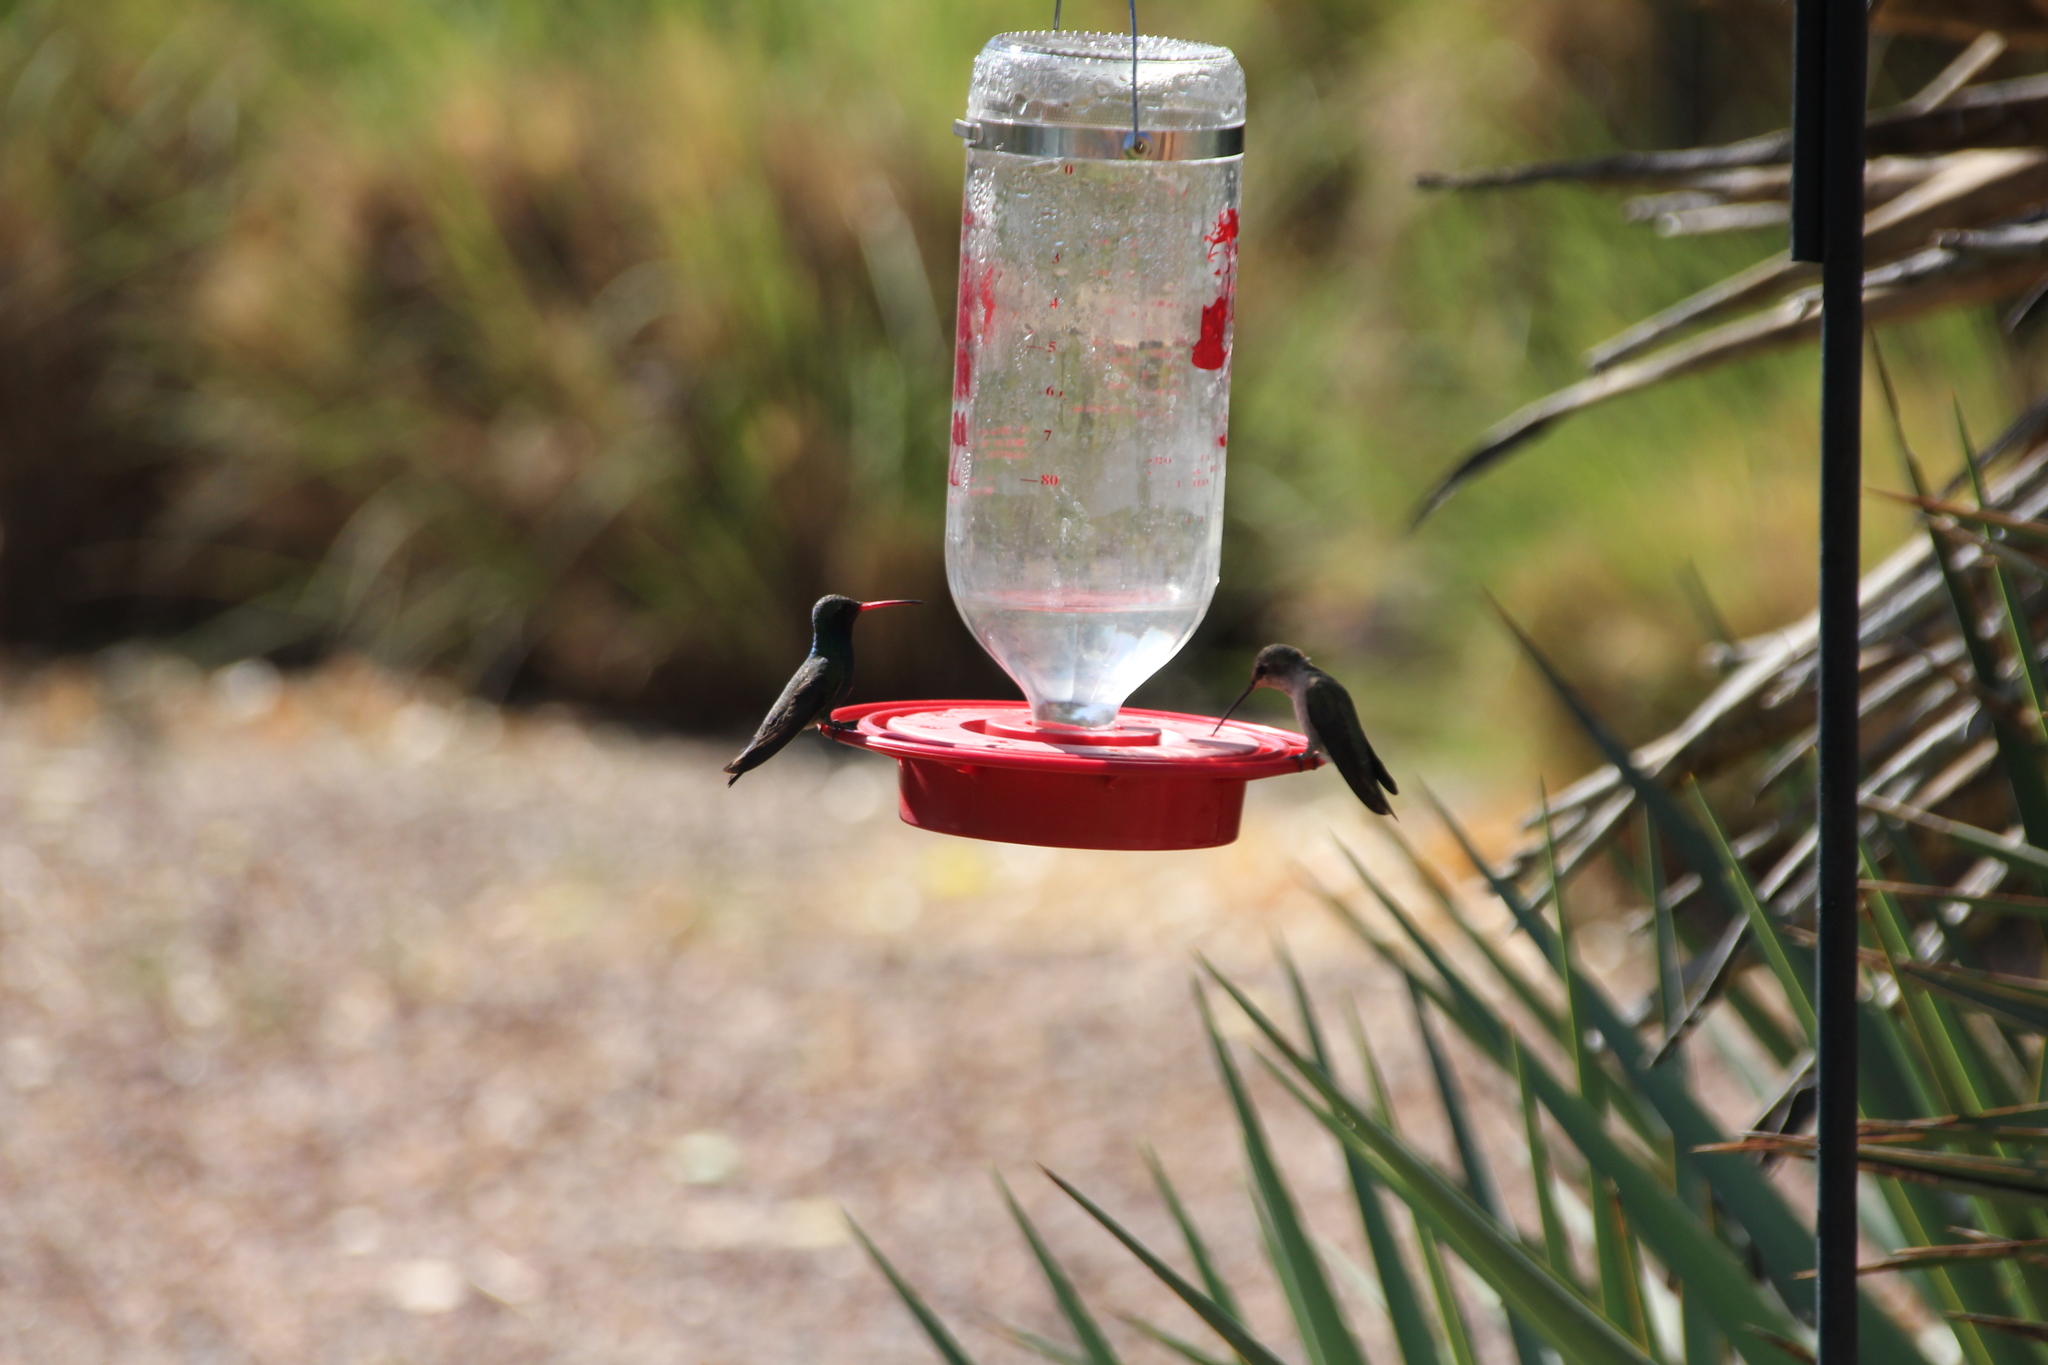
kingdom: Animalia
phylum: Chordata
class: Aves
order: Apodiformes
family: Trochilidae
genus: Cynanthus
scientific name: Cynanthus latirostris
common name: Broad-billed hummingbird
